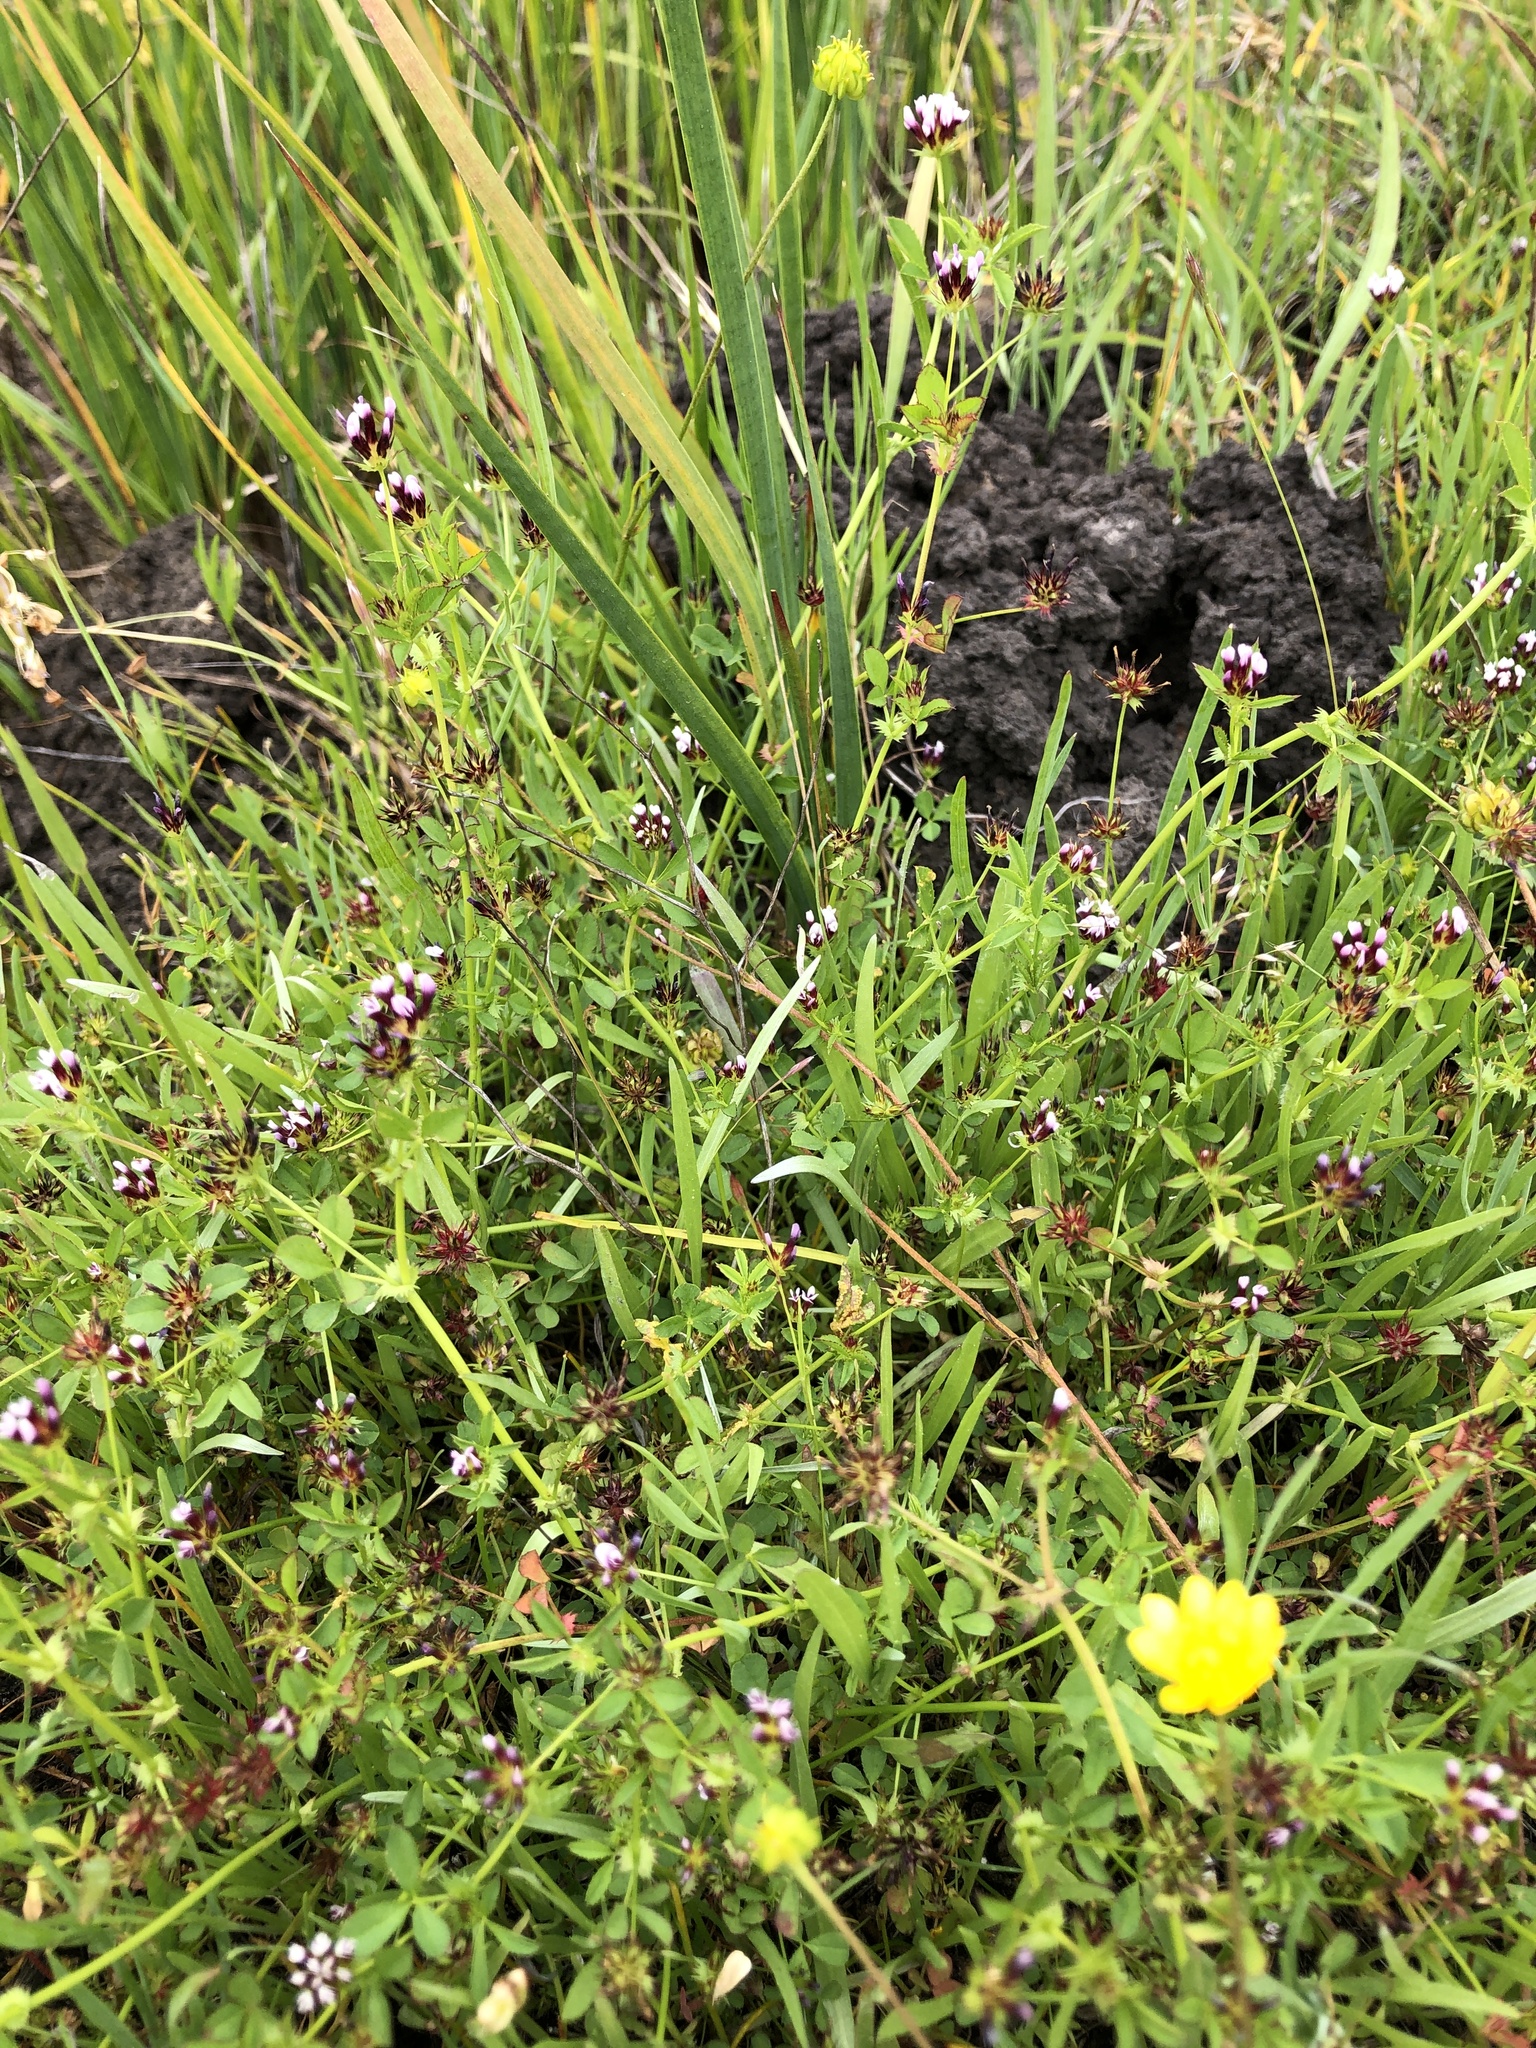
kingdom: Plantae
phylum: Tracheophyta
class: Magnoliopsida
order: Fabales
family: Fabaceae
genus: Trifolium
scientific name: Trifolium variegatum
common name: Whitetip clover
